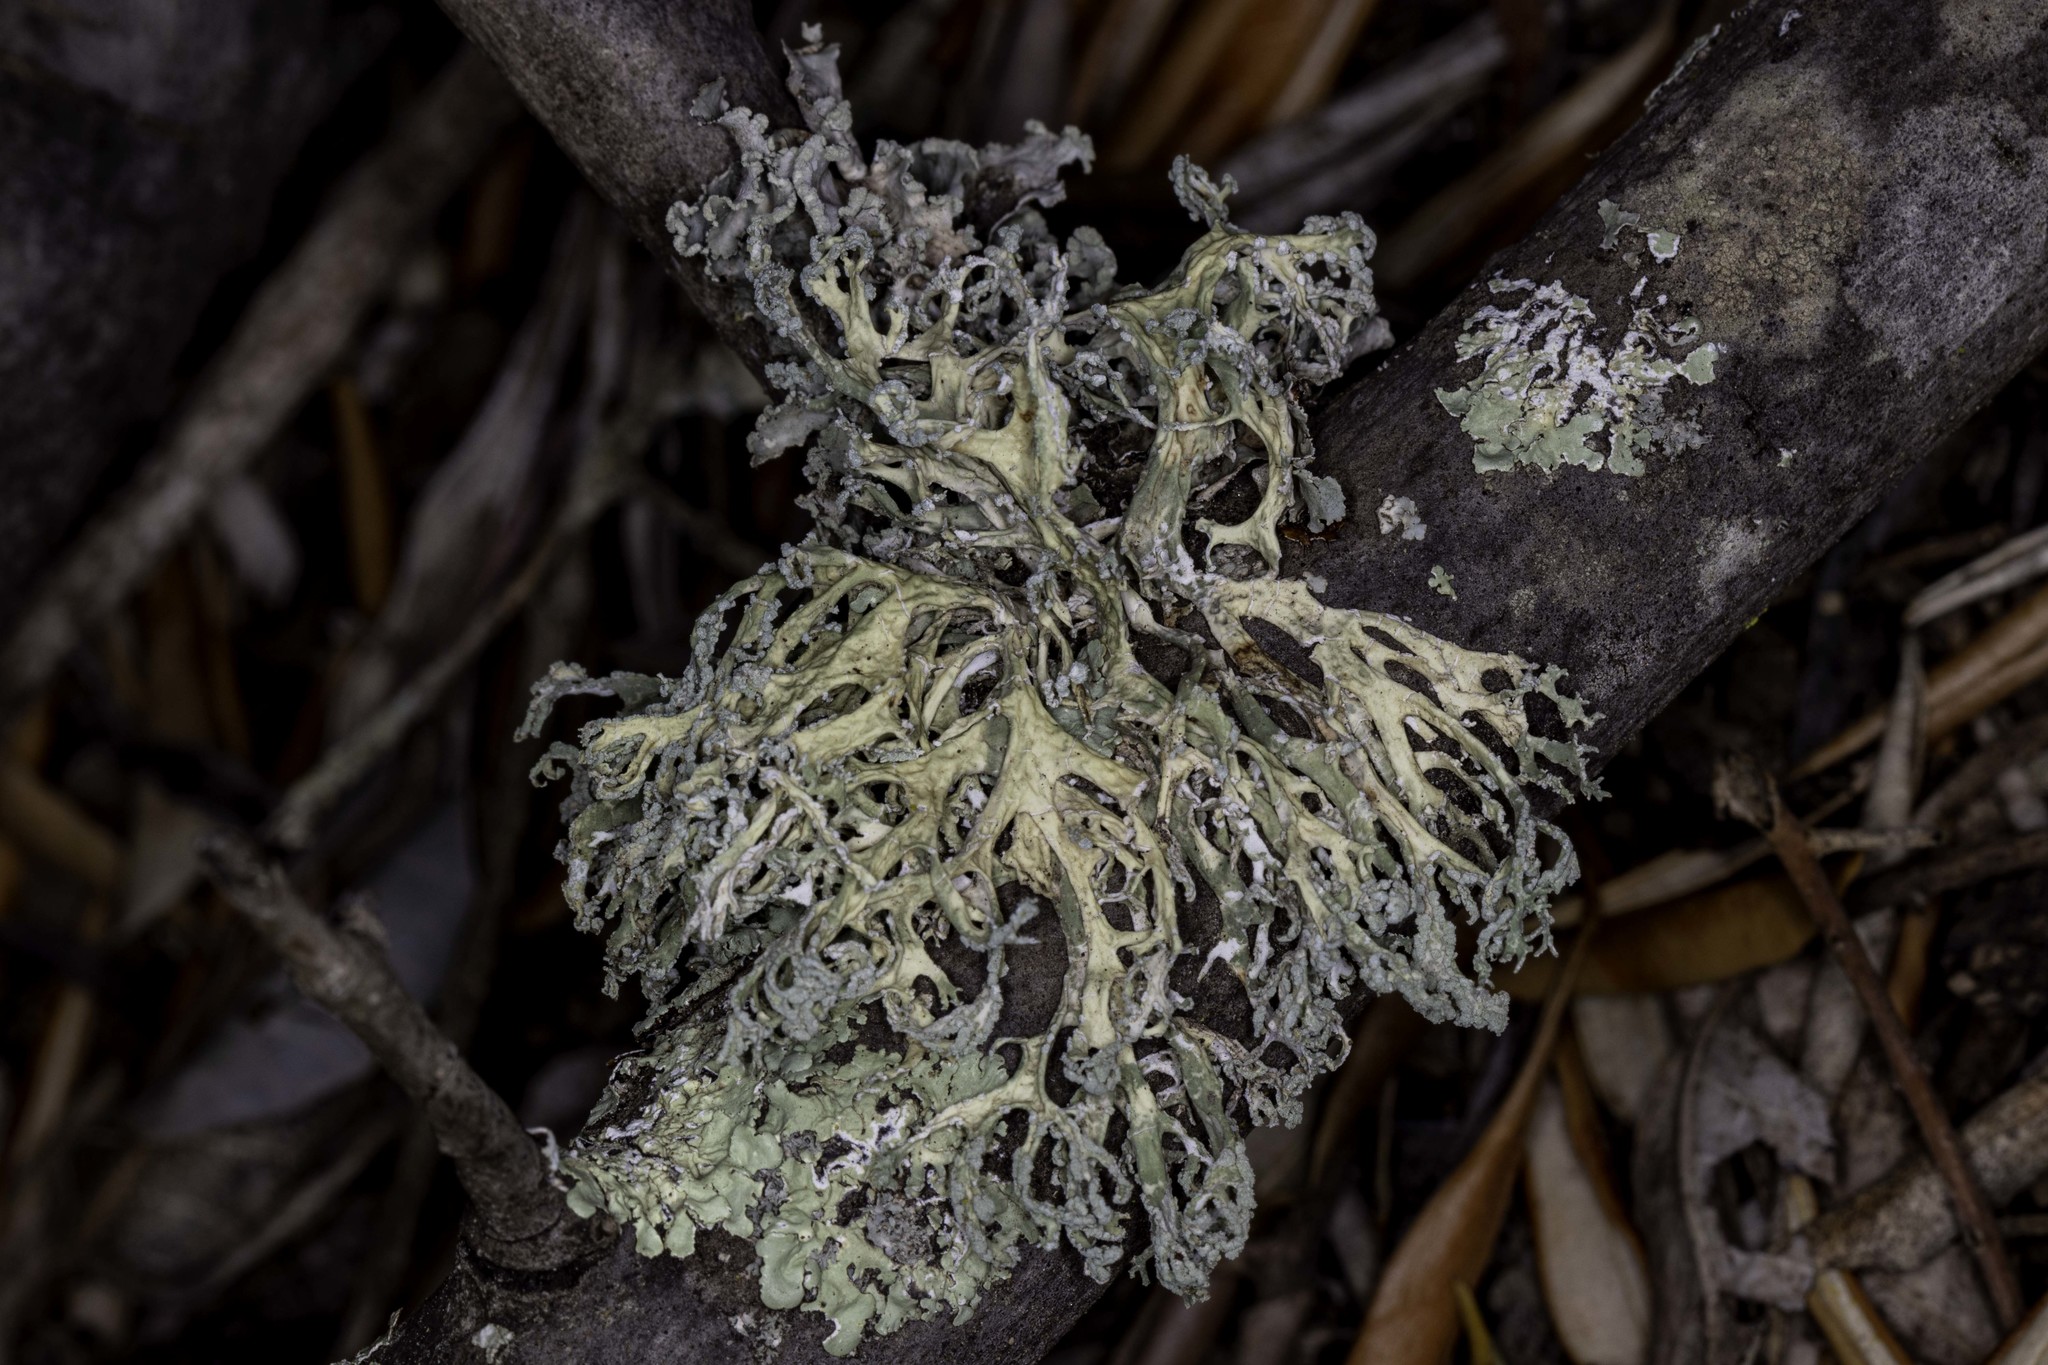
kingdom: Fungi
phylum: Ascomycota
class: Lecanoromycetes
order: Lecanorales
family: Parmeliaceae
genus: Evernia
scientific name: Evernia prunastri
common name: Oak moss
